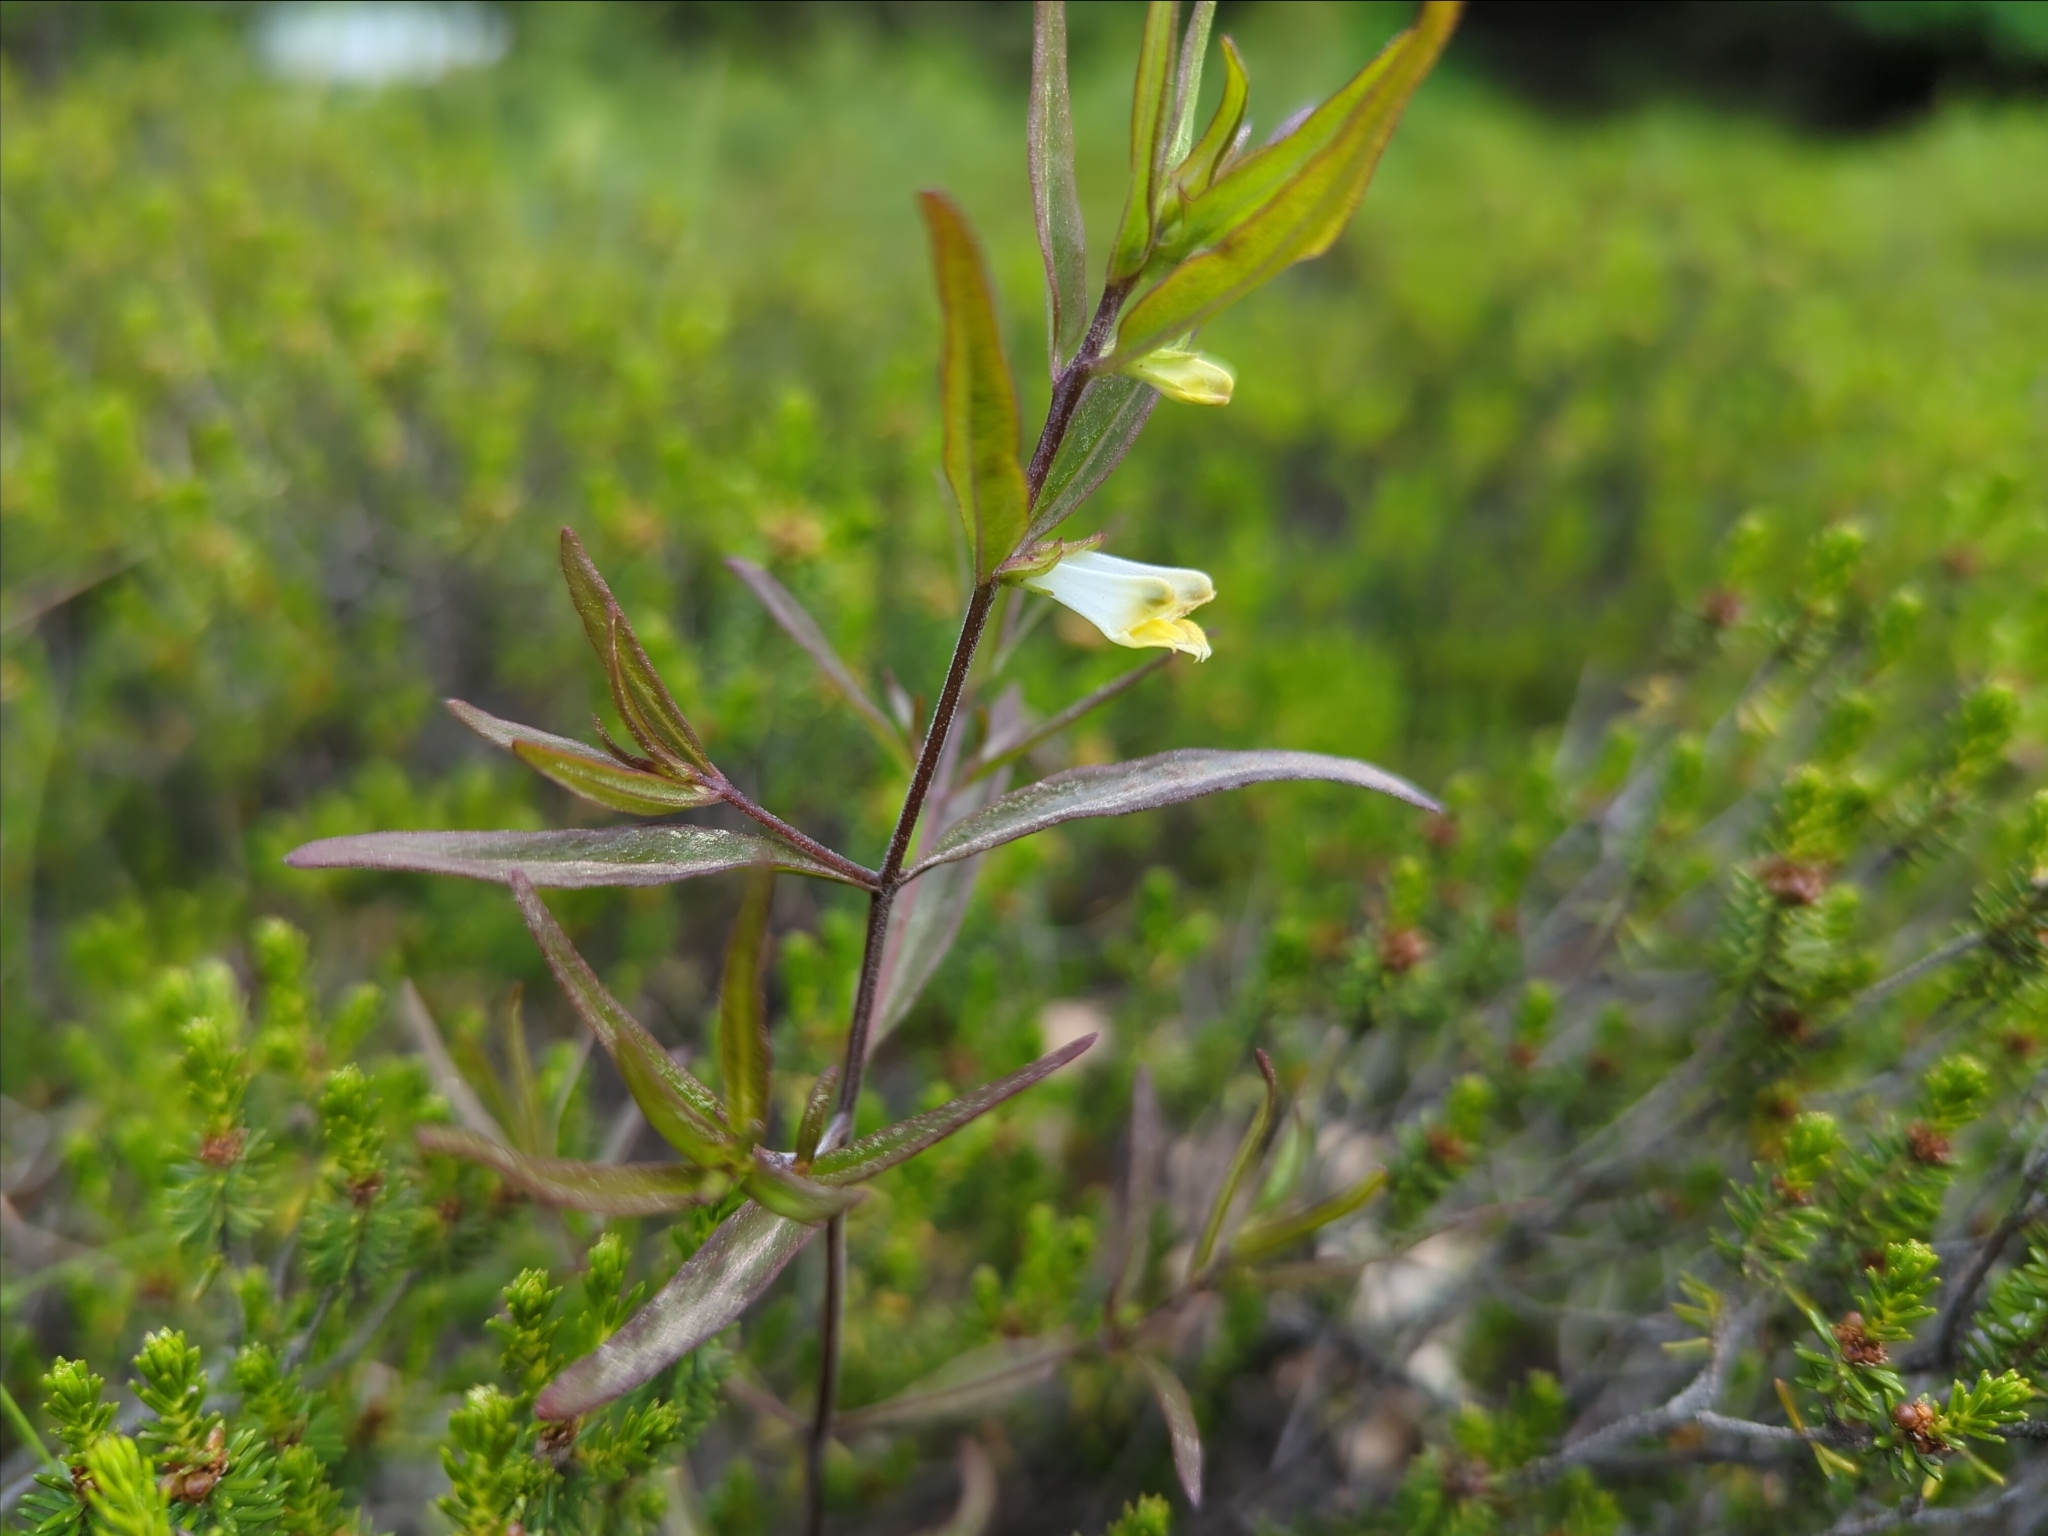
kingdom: Plantae
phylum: Tracheophyta
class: Magnoliopsida
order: Lamiales
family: Orobanchaceae
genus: Melampyrum
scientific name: Melampyrum lineare
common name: American cow-wheat
